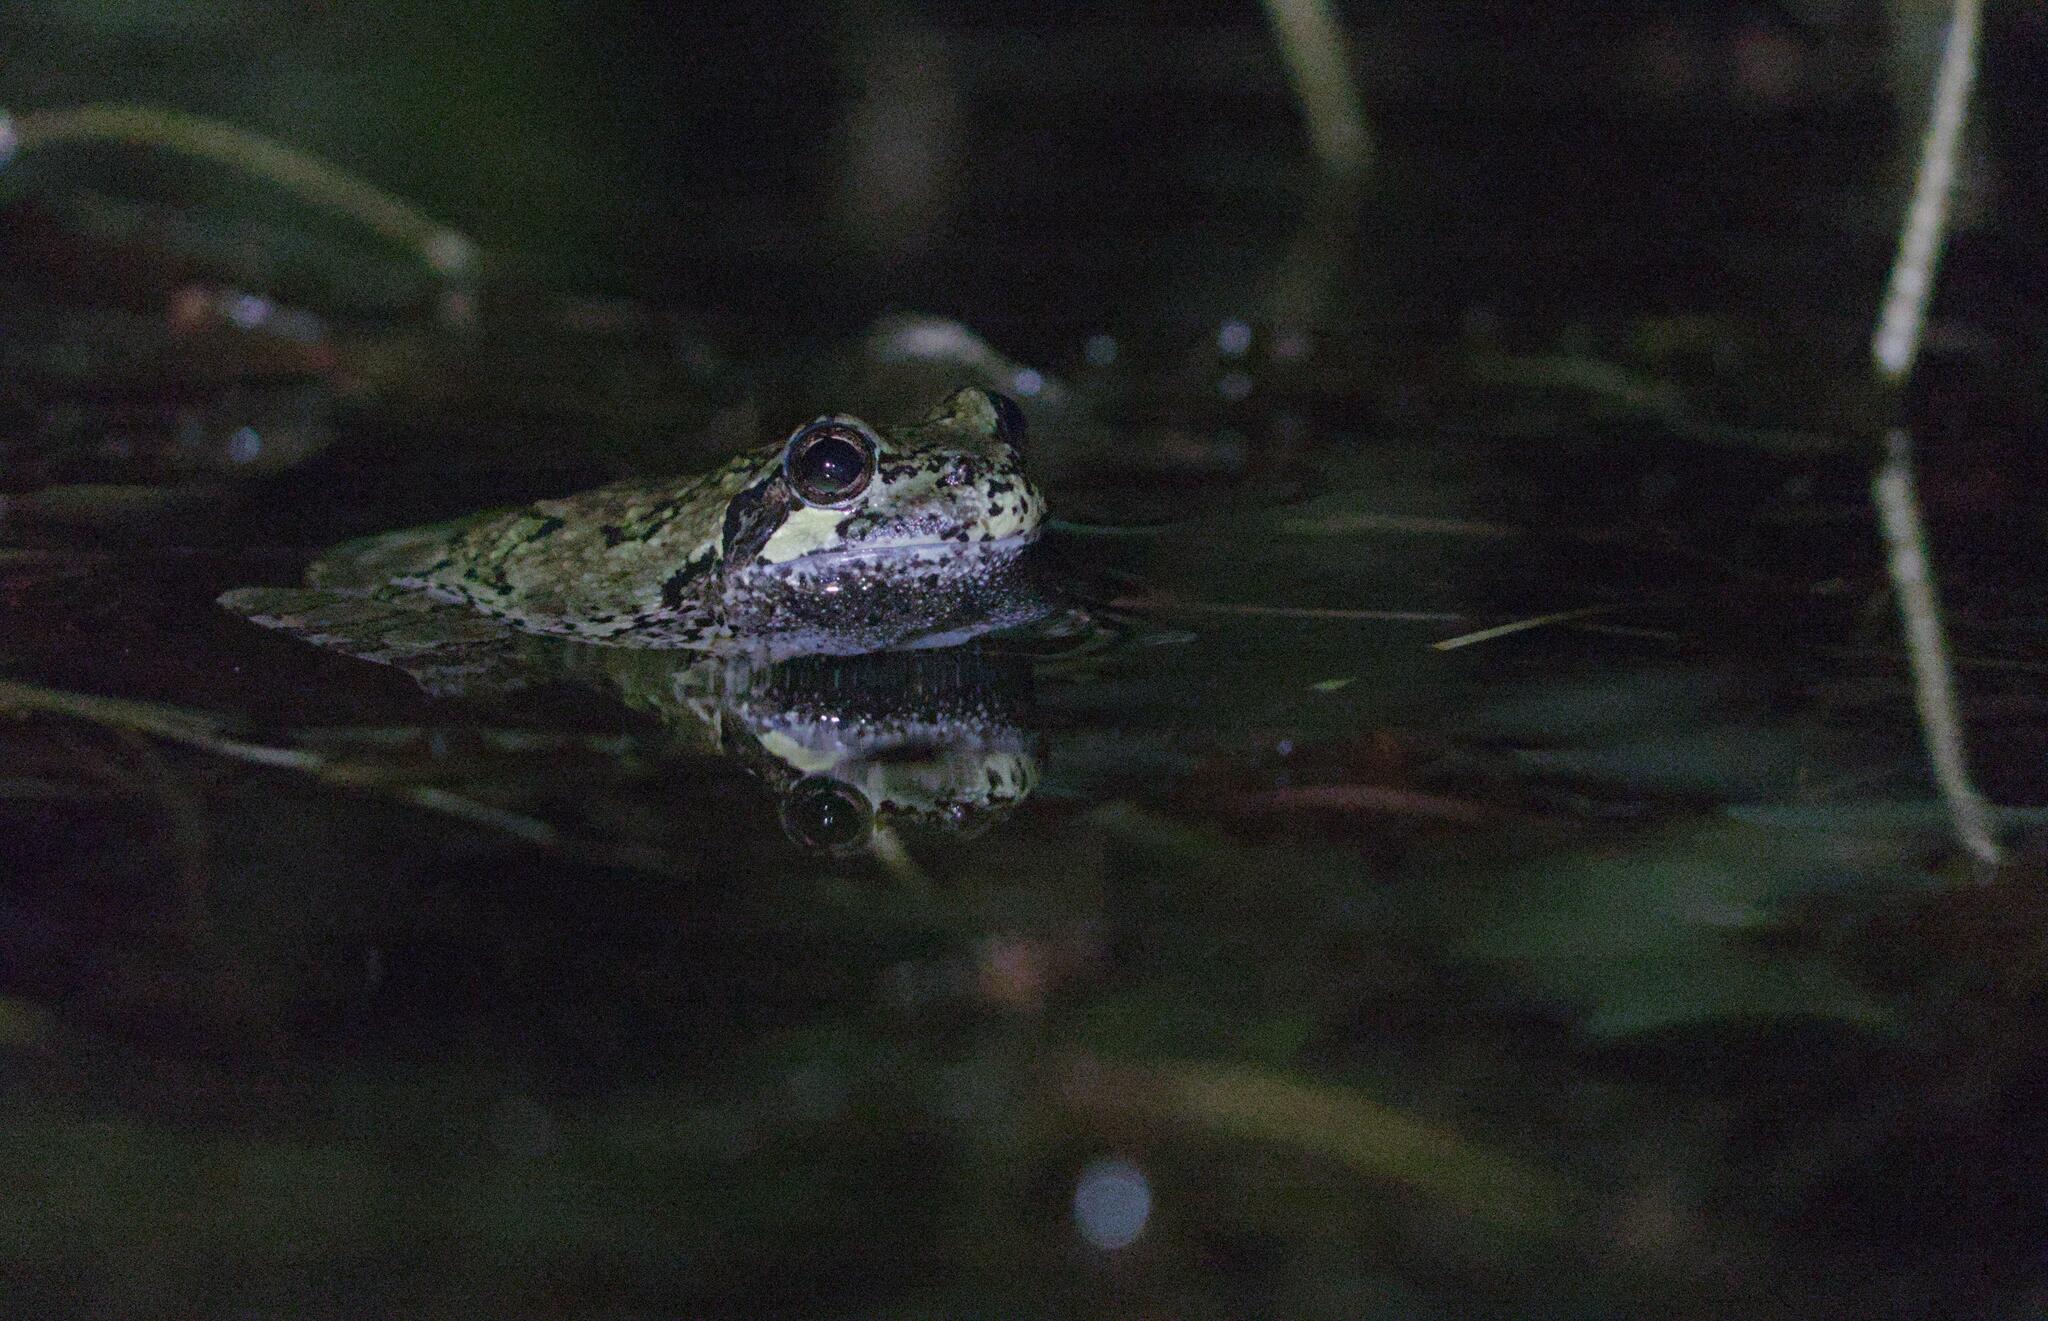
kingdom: Animalia
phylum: Chordata
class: Amphibia
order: Anura
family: Hylidae
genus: Dryophytes
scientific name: Dryophytes versicolor
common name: Gray treefrog
